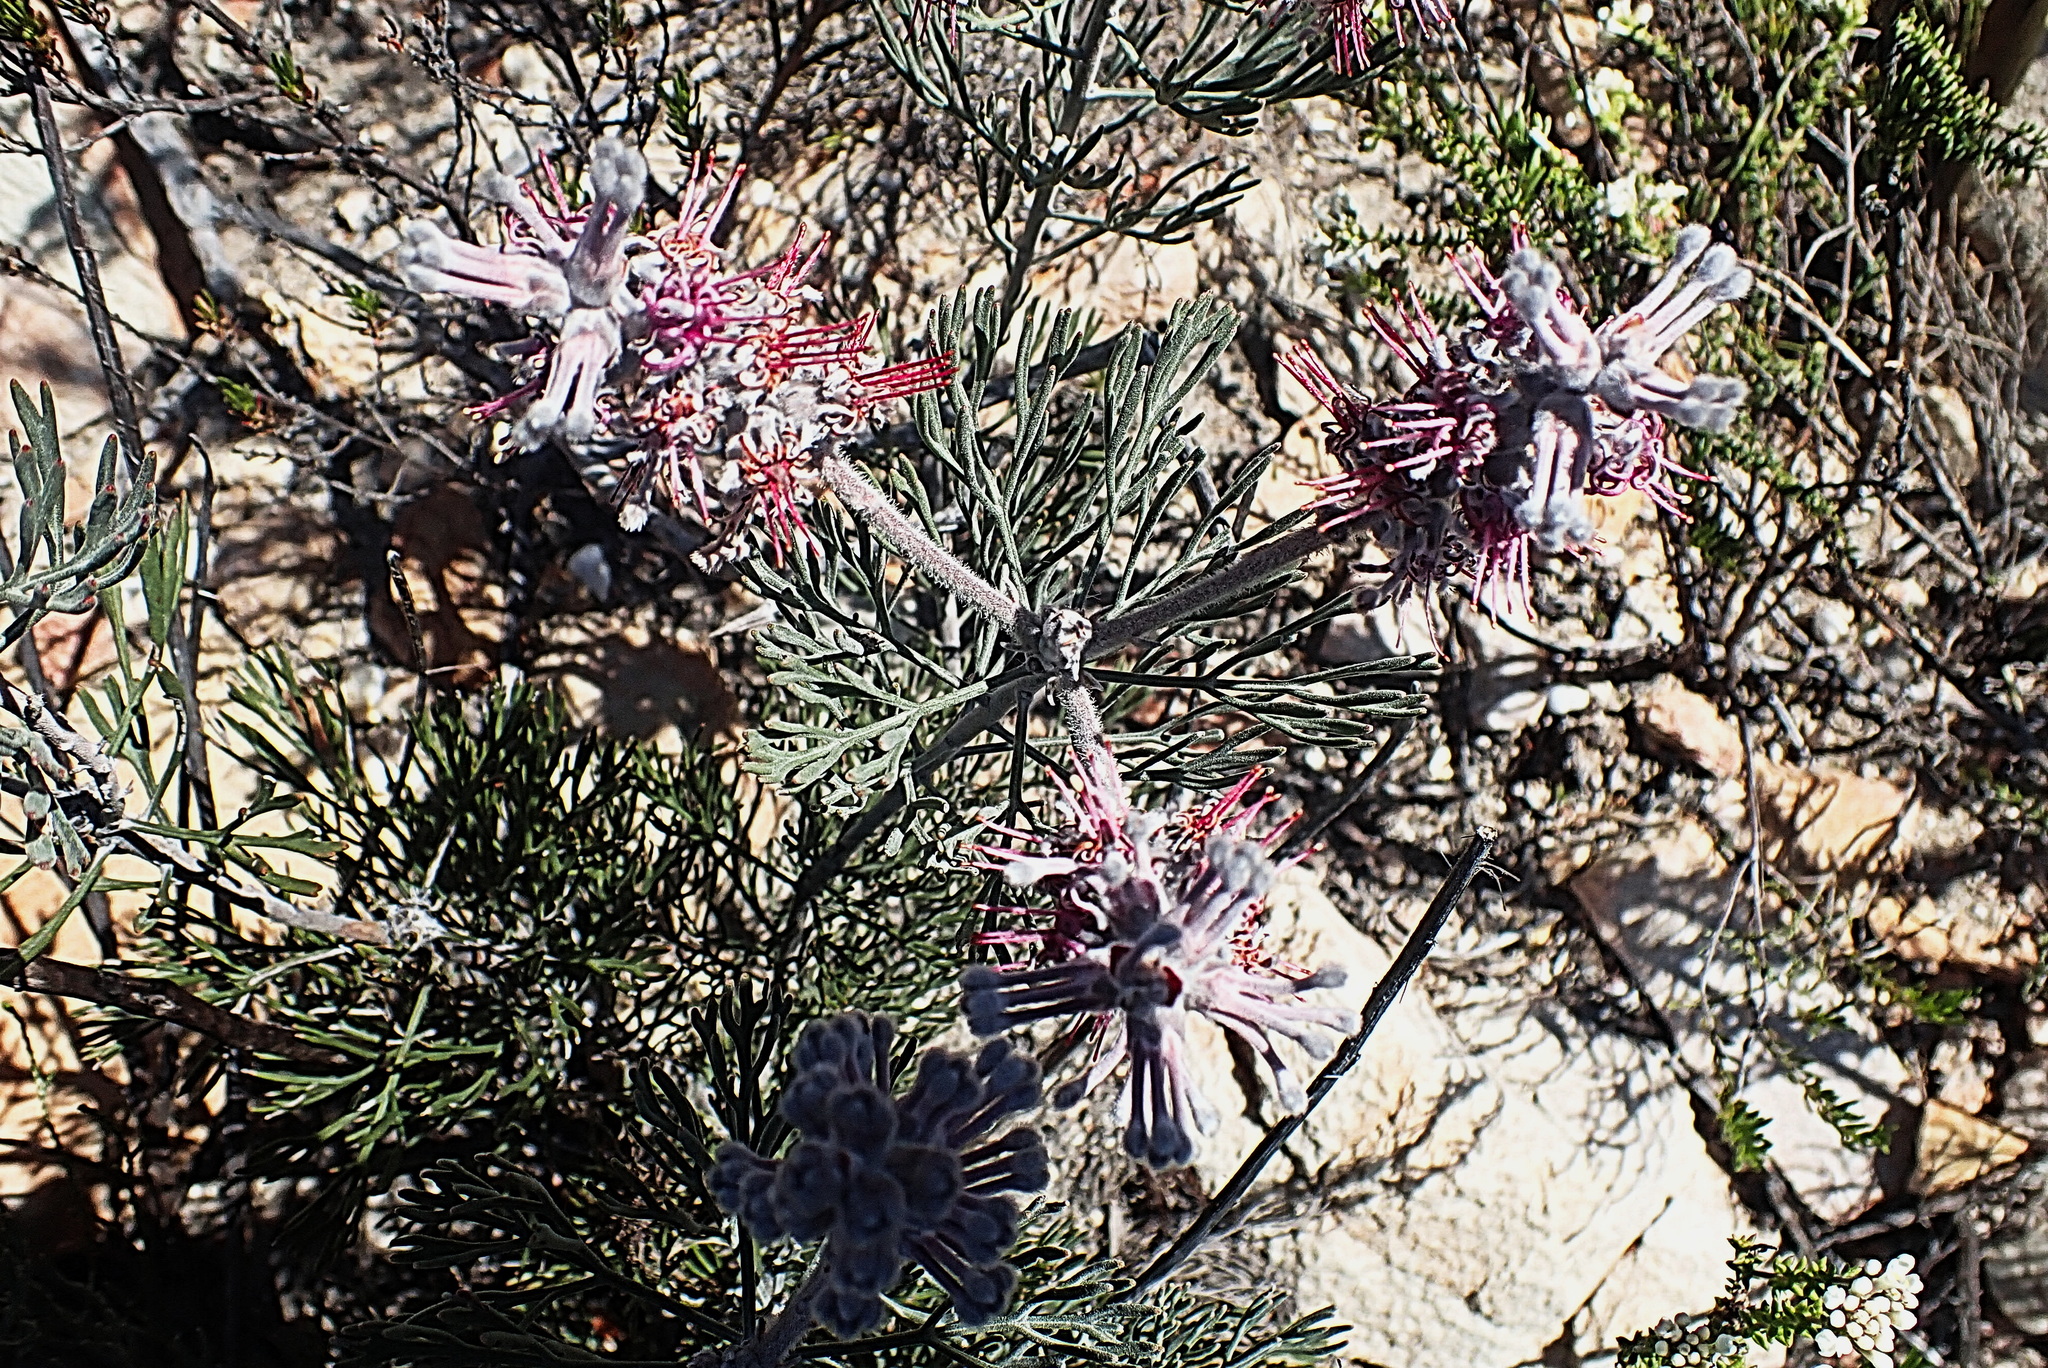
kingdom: Plantae
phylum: Tracheophyta
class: Magnoliopsida
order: Proteales
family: Proteaceae
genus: Paranomus
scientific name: Paranomus dispersus
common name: Long-head sceptre
